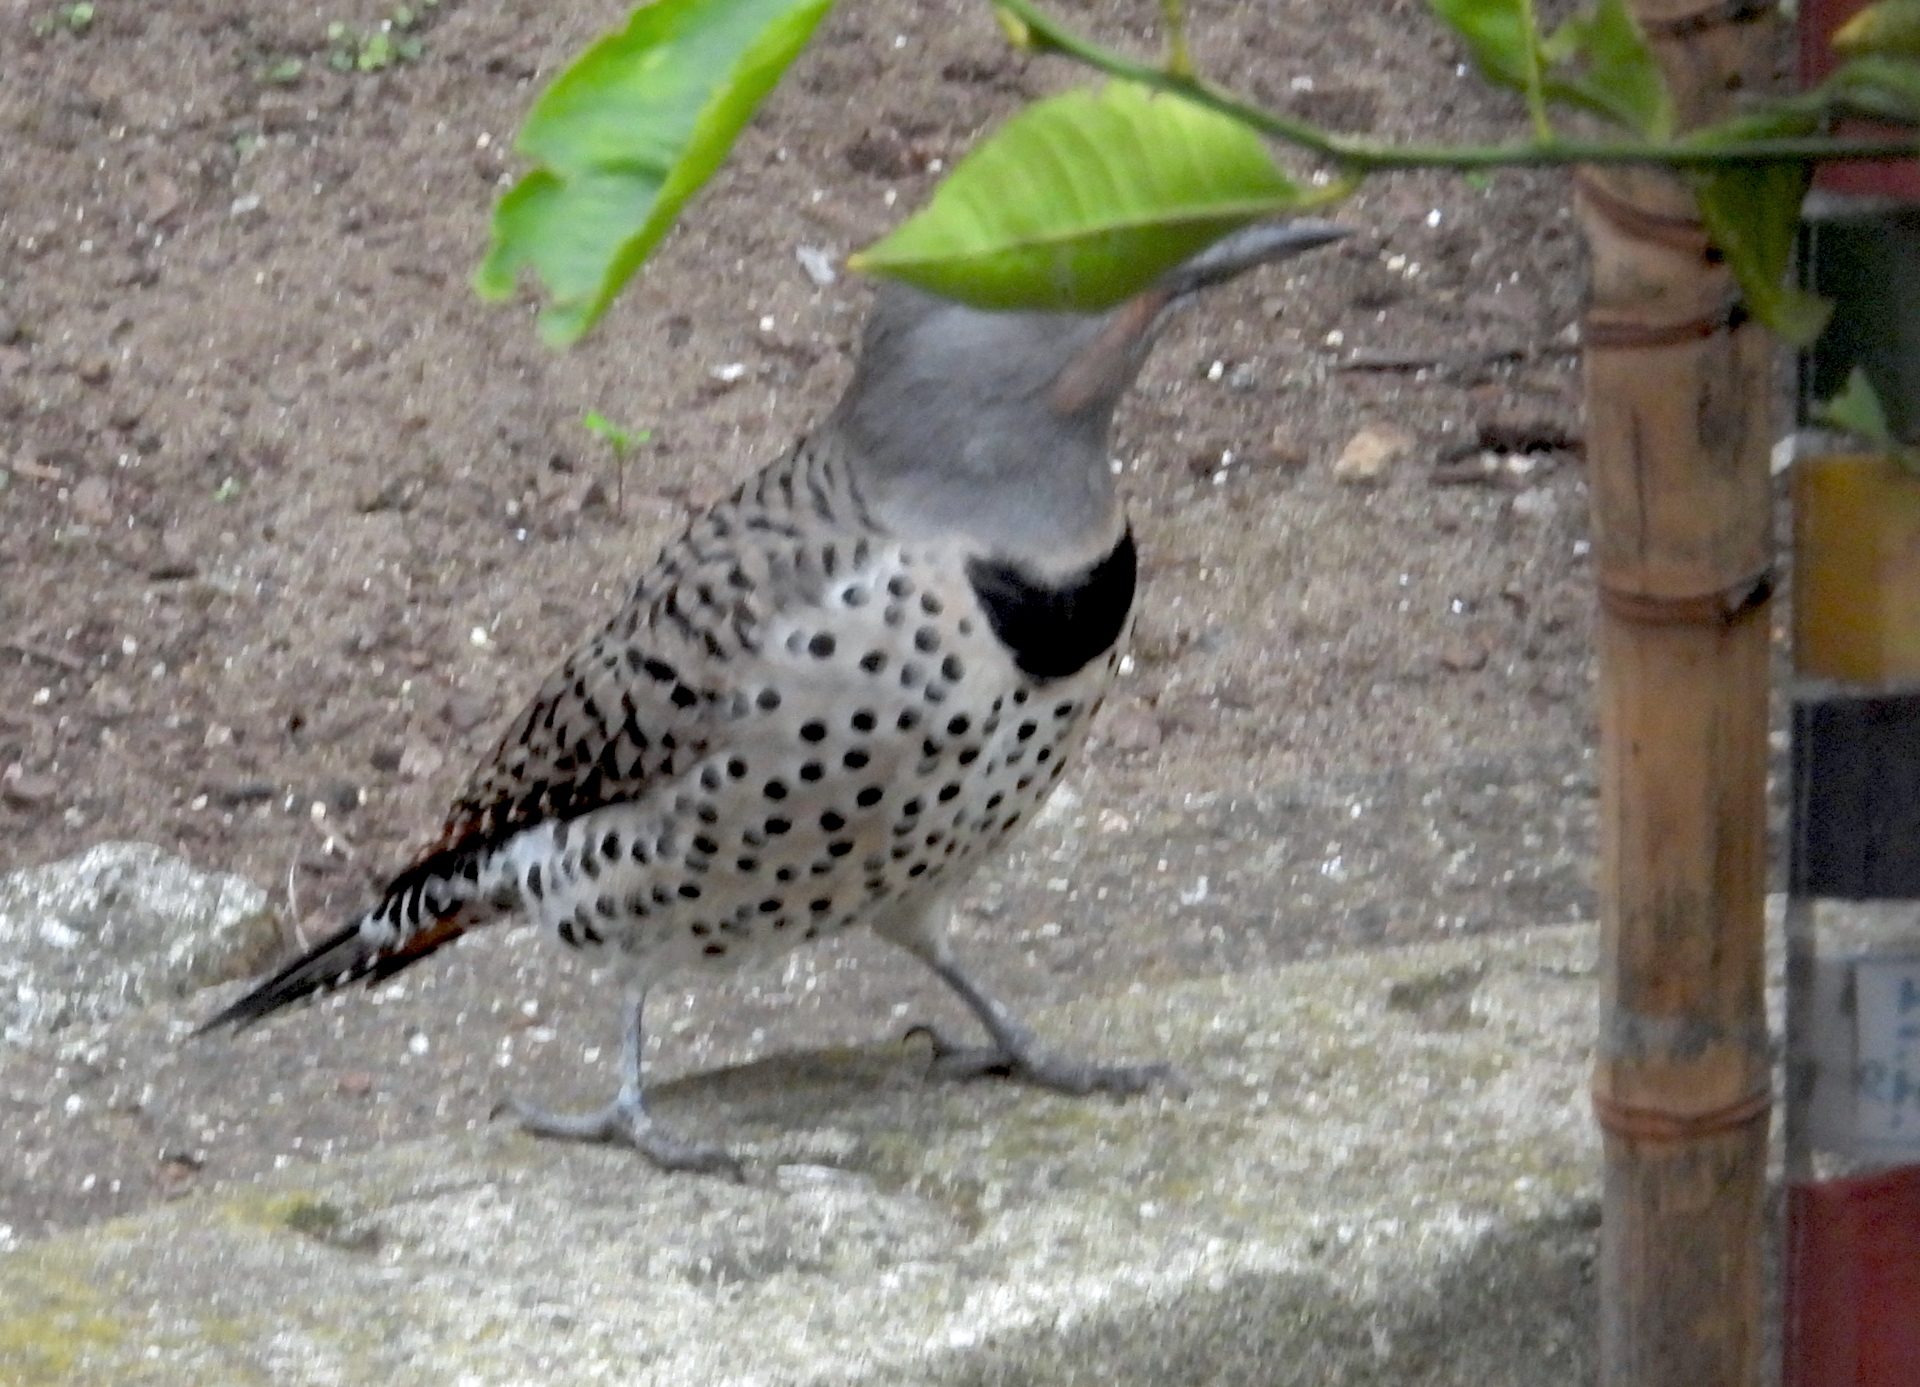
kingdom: Animalia
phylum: Chordata
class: Aves
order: Piciformes
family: Picidae
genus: Colaptes
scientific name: Colaptes auratus
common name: Northern flicker
